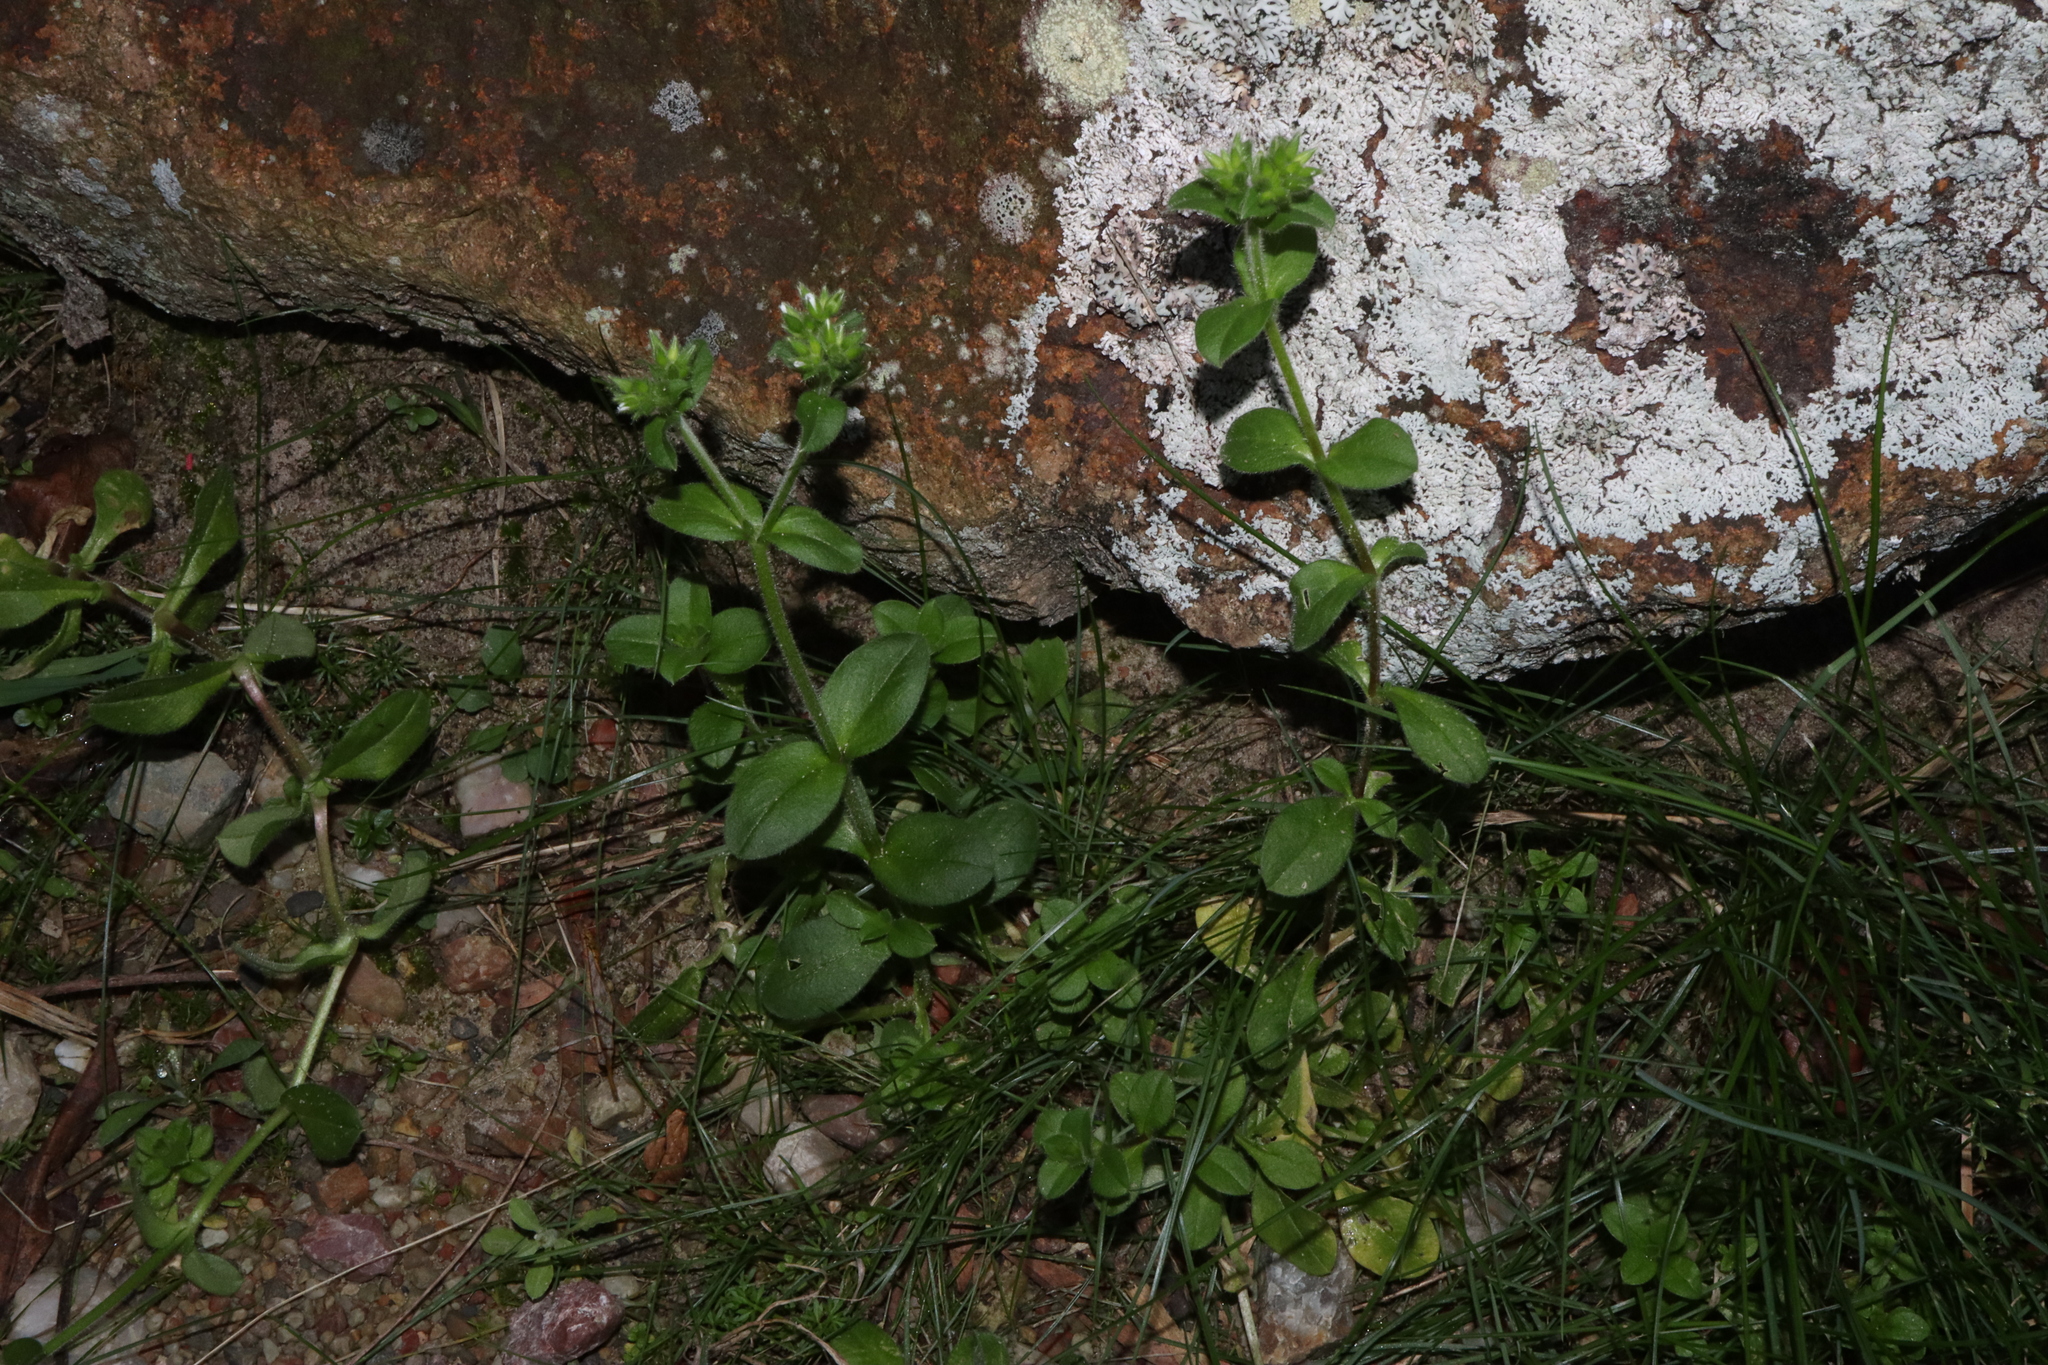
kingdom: Plantae
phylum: Tracheophyta
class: Magnoliopsida
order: Caryophyllales
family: Caryophyllaceae
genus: Cerastium
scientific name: Cerastium glomeratum
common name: Sticky chickweed
